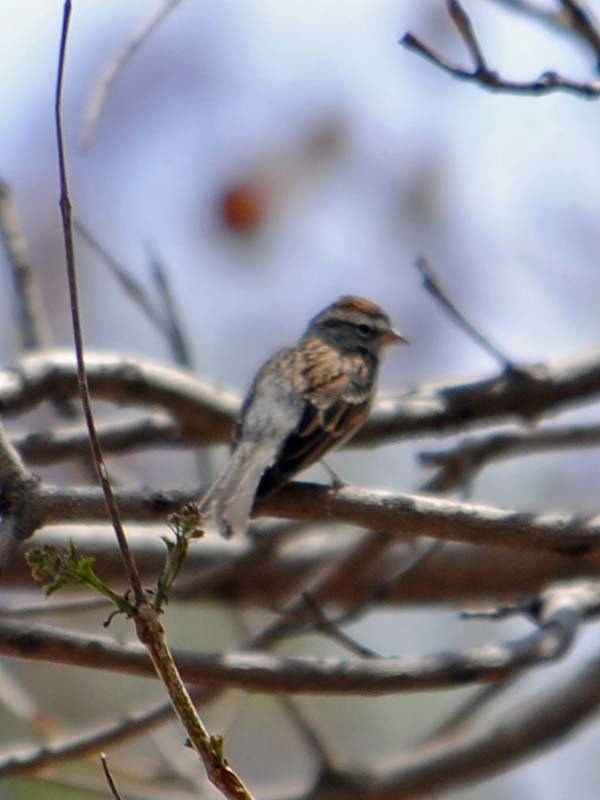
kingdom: Animalia
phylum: Chordata
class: Aves
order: Passeriformes
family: Passerellidae
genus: Spizella
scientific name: Spizella passerina
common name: Chipping sparrow
